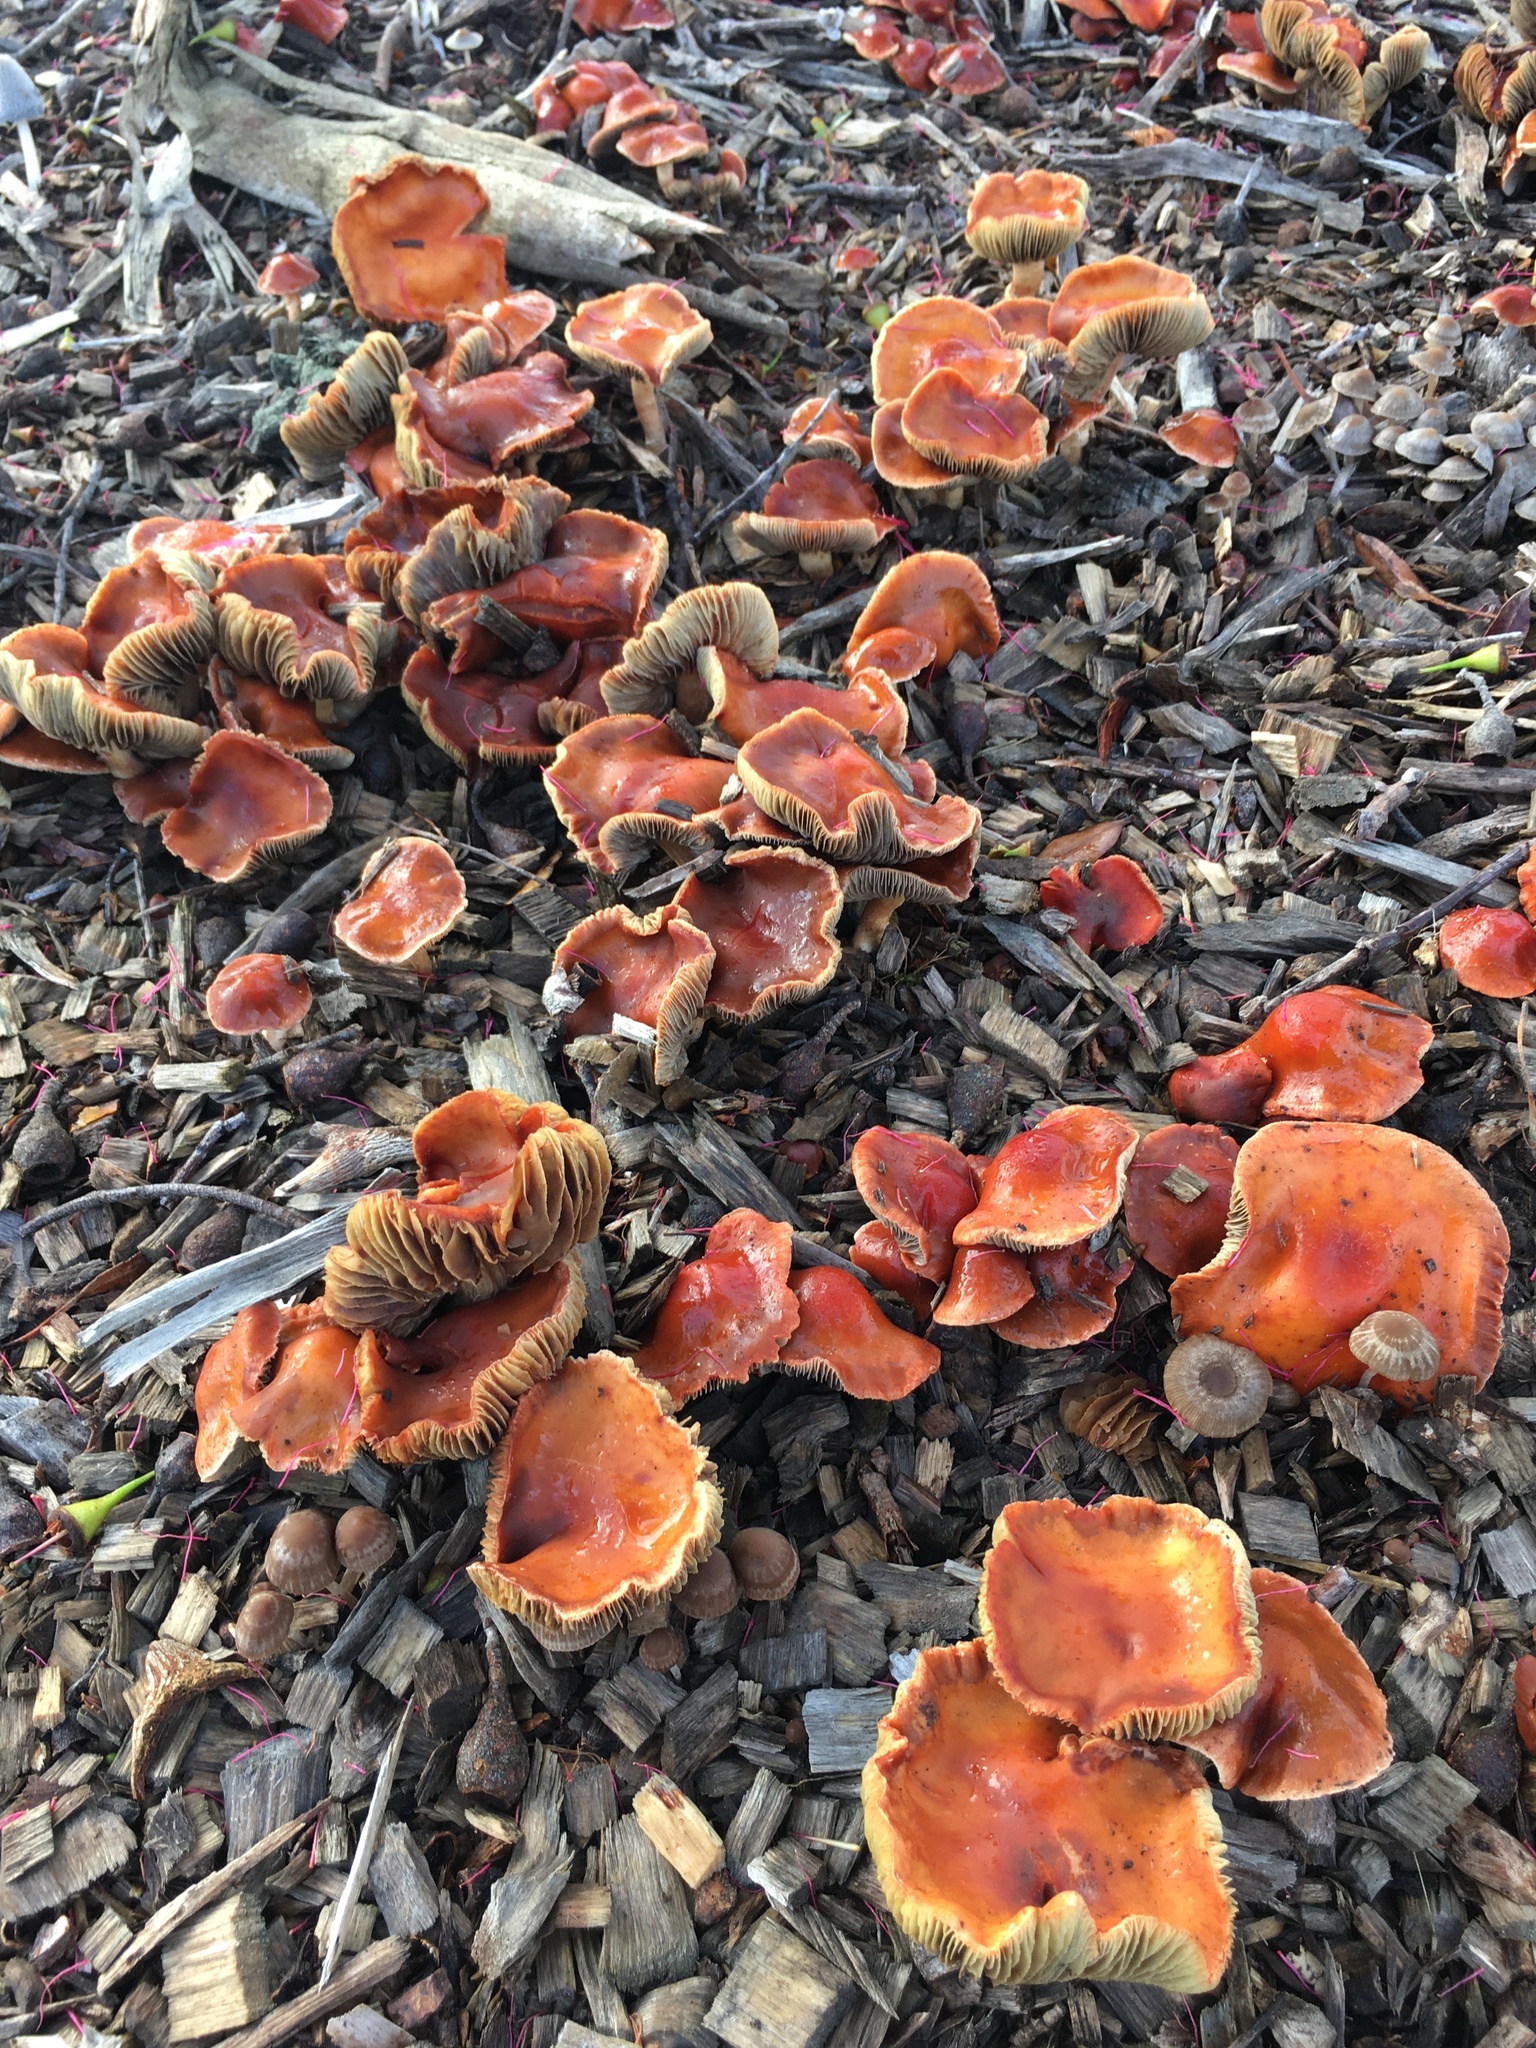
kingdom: Fungi
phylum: Basidiomycota
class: Agaricomycetes
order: Agaricales
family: Strophariaceae
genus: Leratiomyces
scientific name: Leratiomyces ceres
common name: Redlead roundhead
